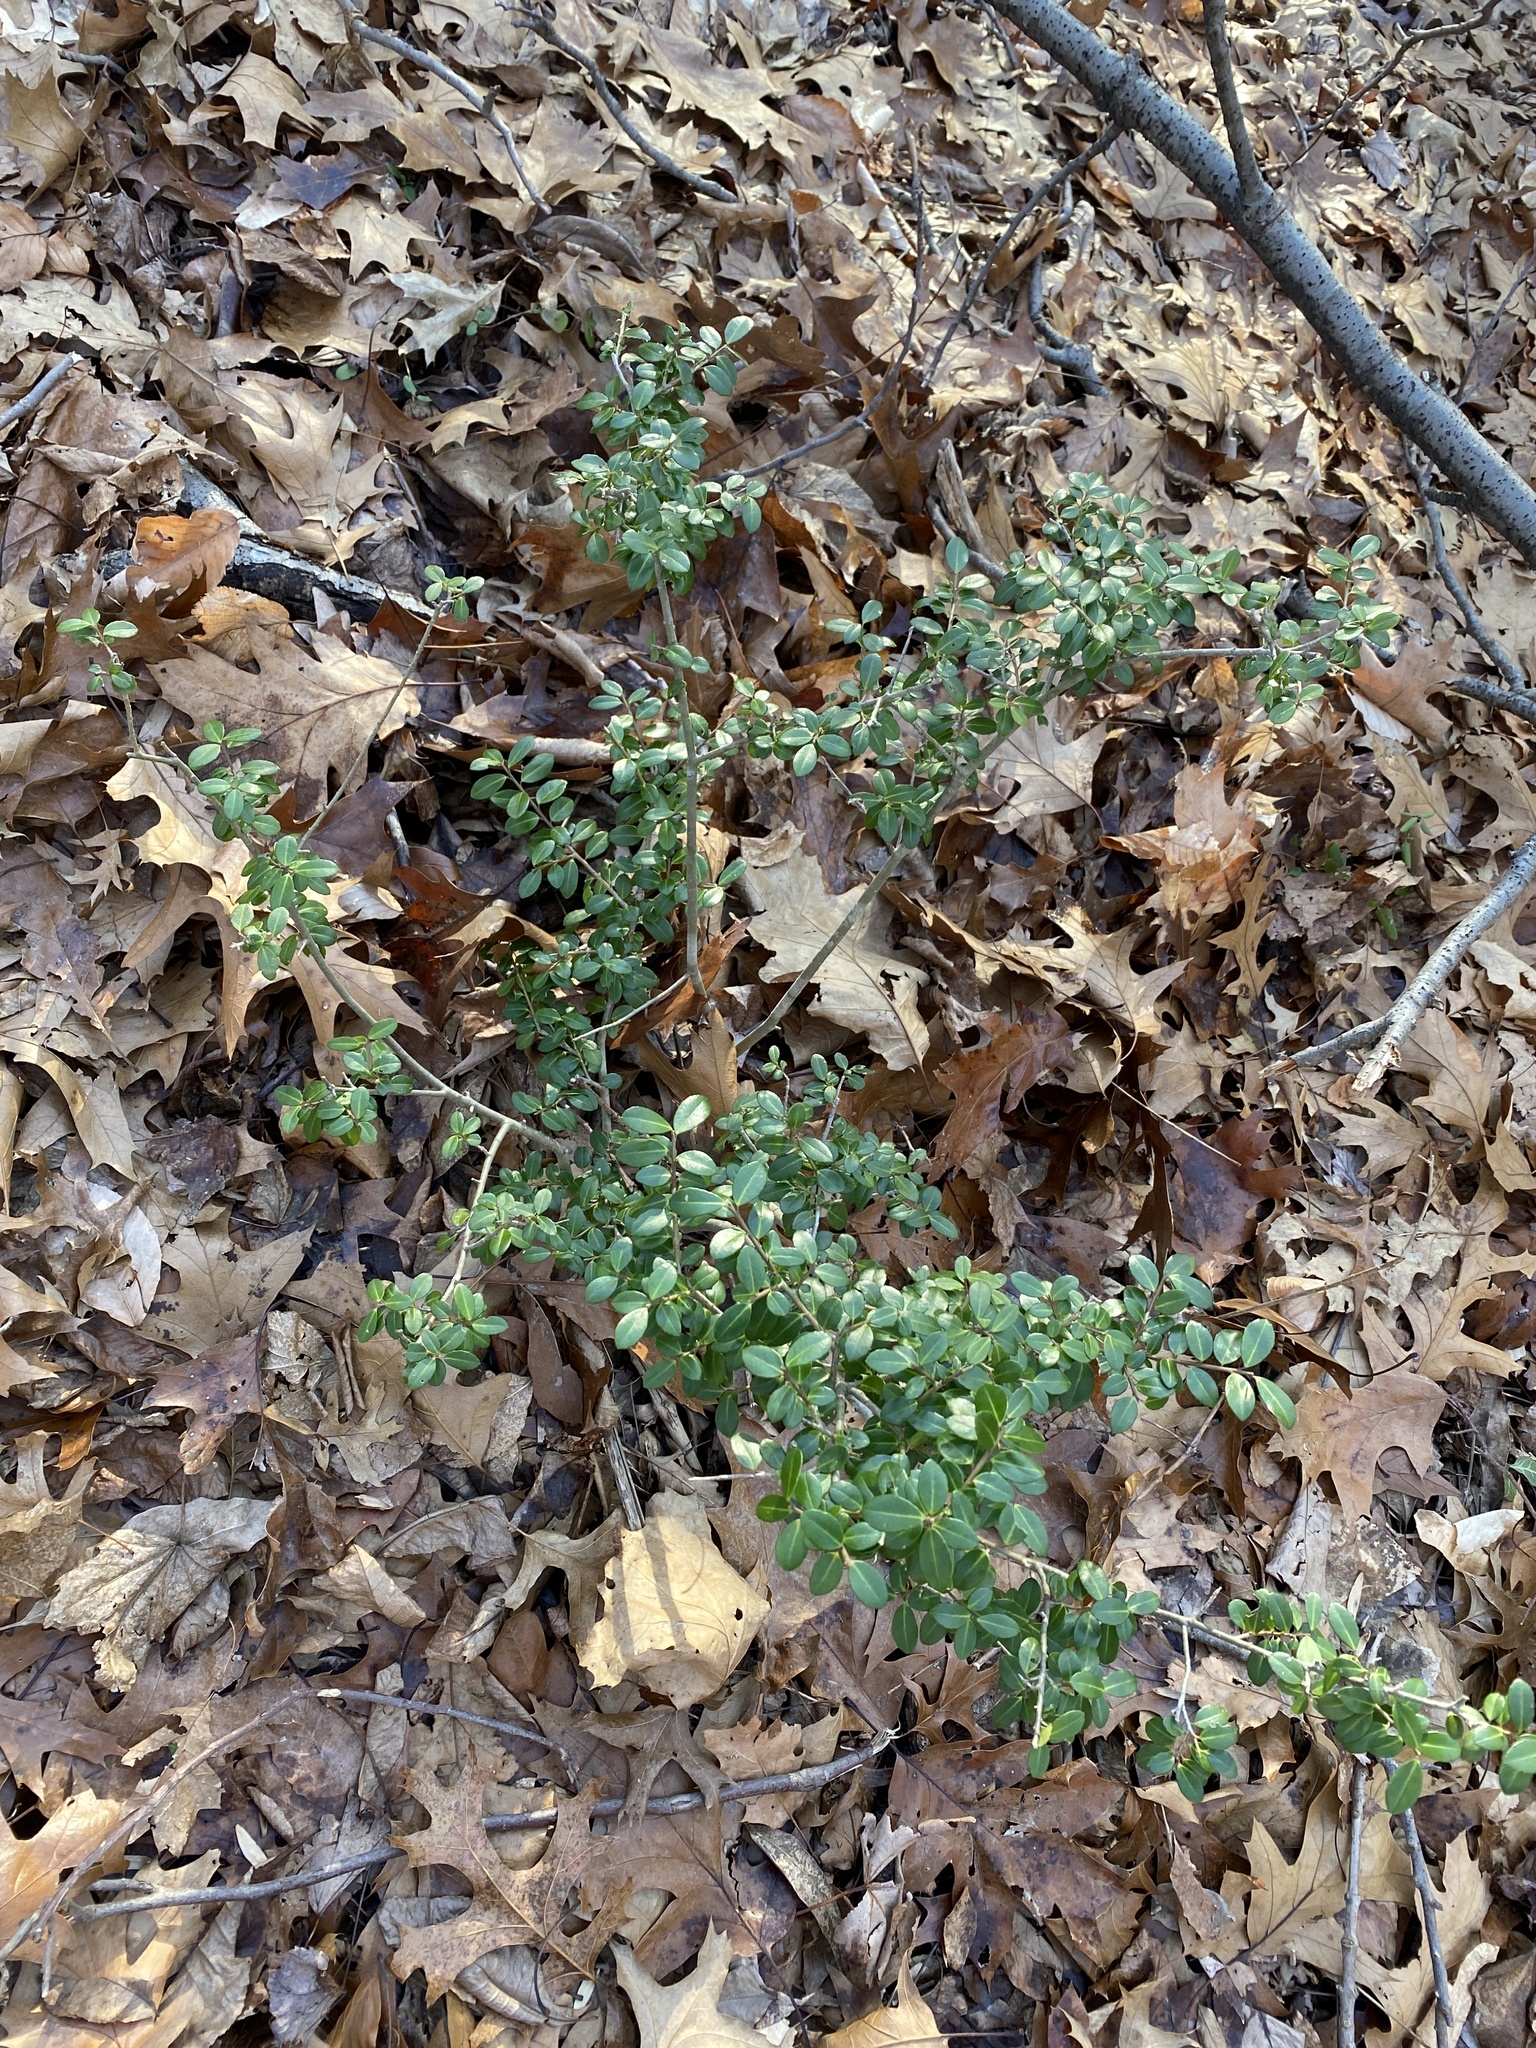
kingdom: Plantae
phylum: Tracheophyta
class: Magnoliopsida
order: Aquifoliales
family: Aquifoliaceae
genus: Ilex
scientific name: Ilex crenata
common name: Japanese holly
